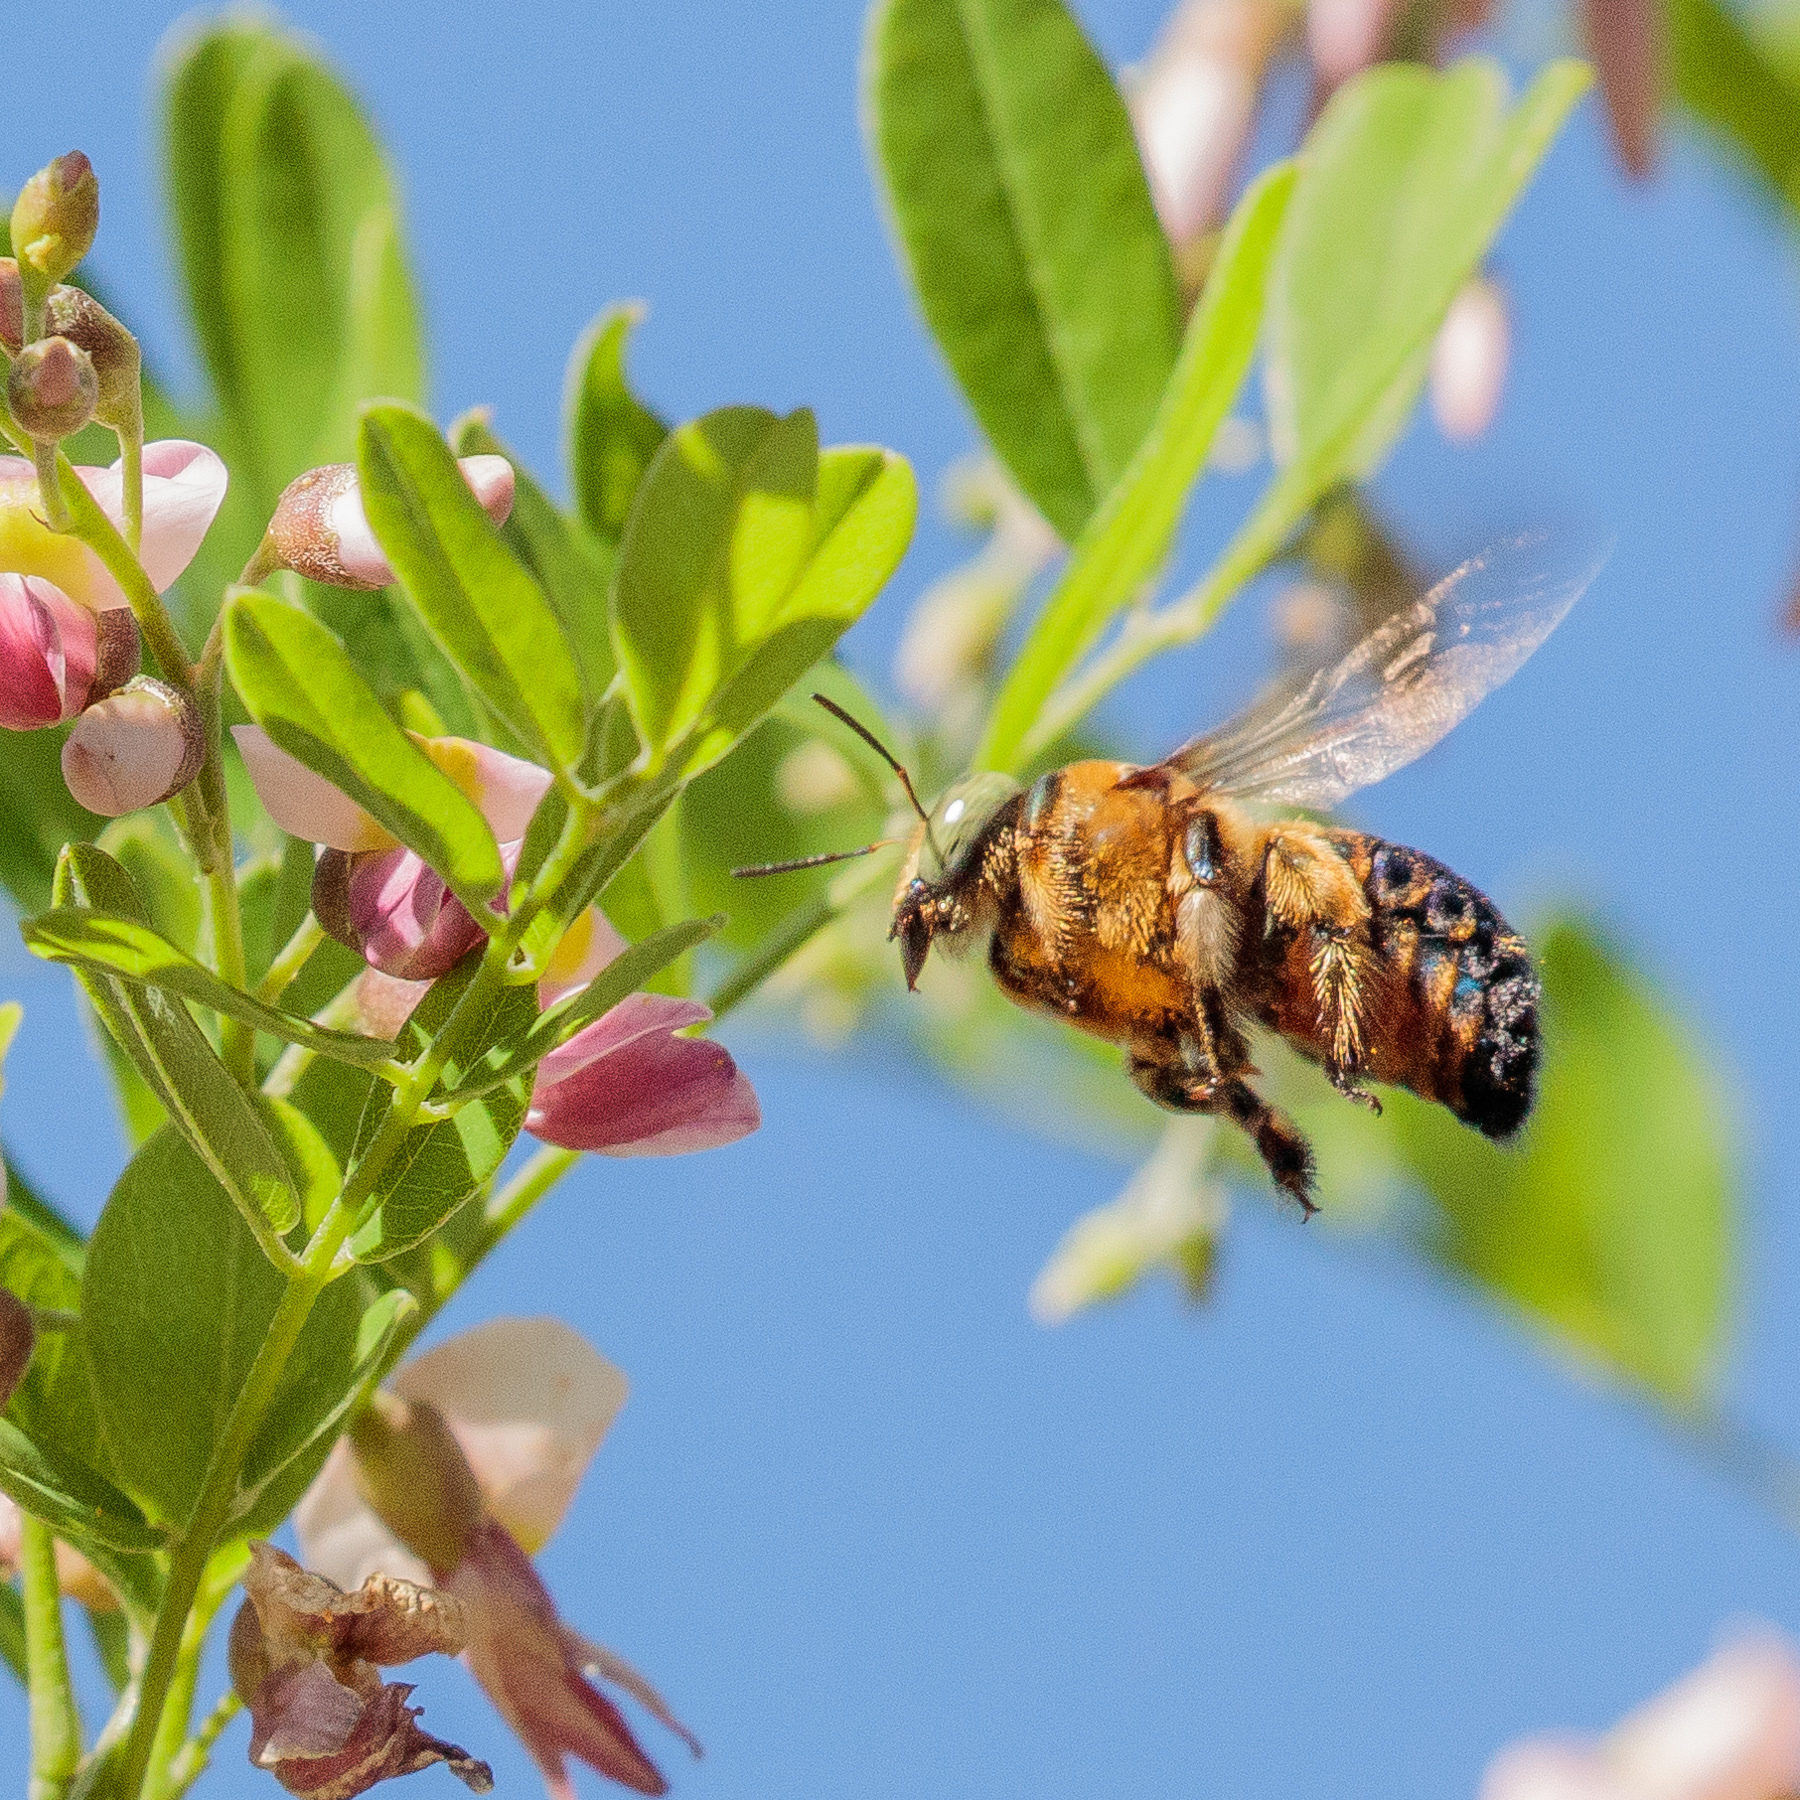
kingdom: Animalia
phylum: Arthropoda
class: Insecta
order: Hymenoptera
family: Apidae
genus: Xylocopa
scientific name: Xylocopa micans
